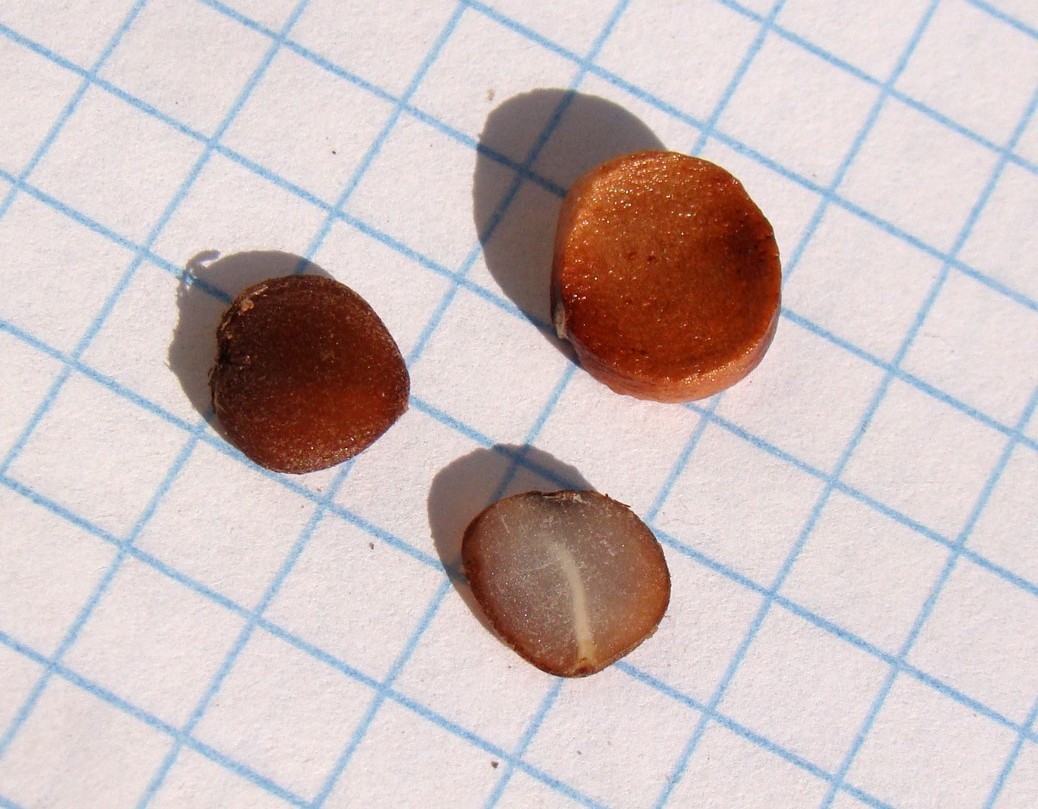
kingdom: Plantae
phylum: Tracheophyta
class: Liliopsida
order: Asparagales
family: Iridaceae
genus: Iris
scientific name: Iris pseudacorus
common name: Yellow flag
